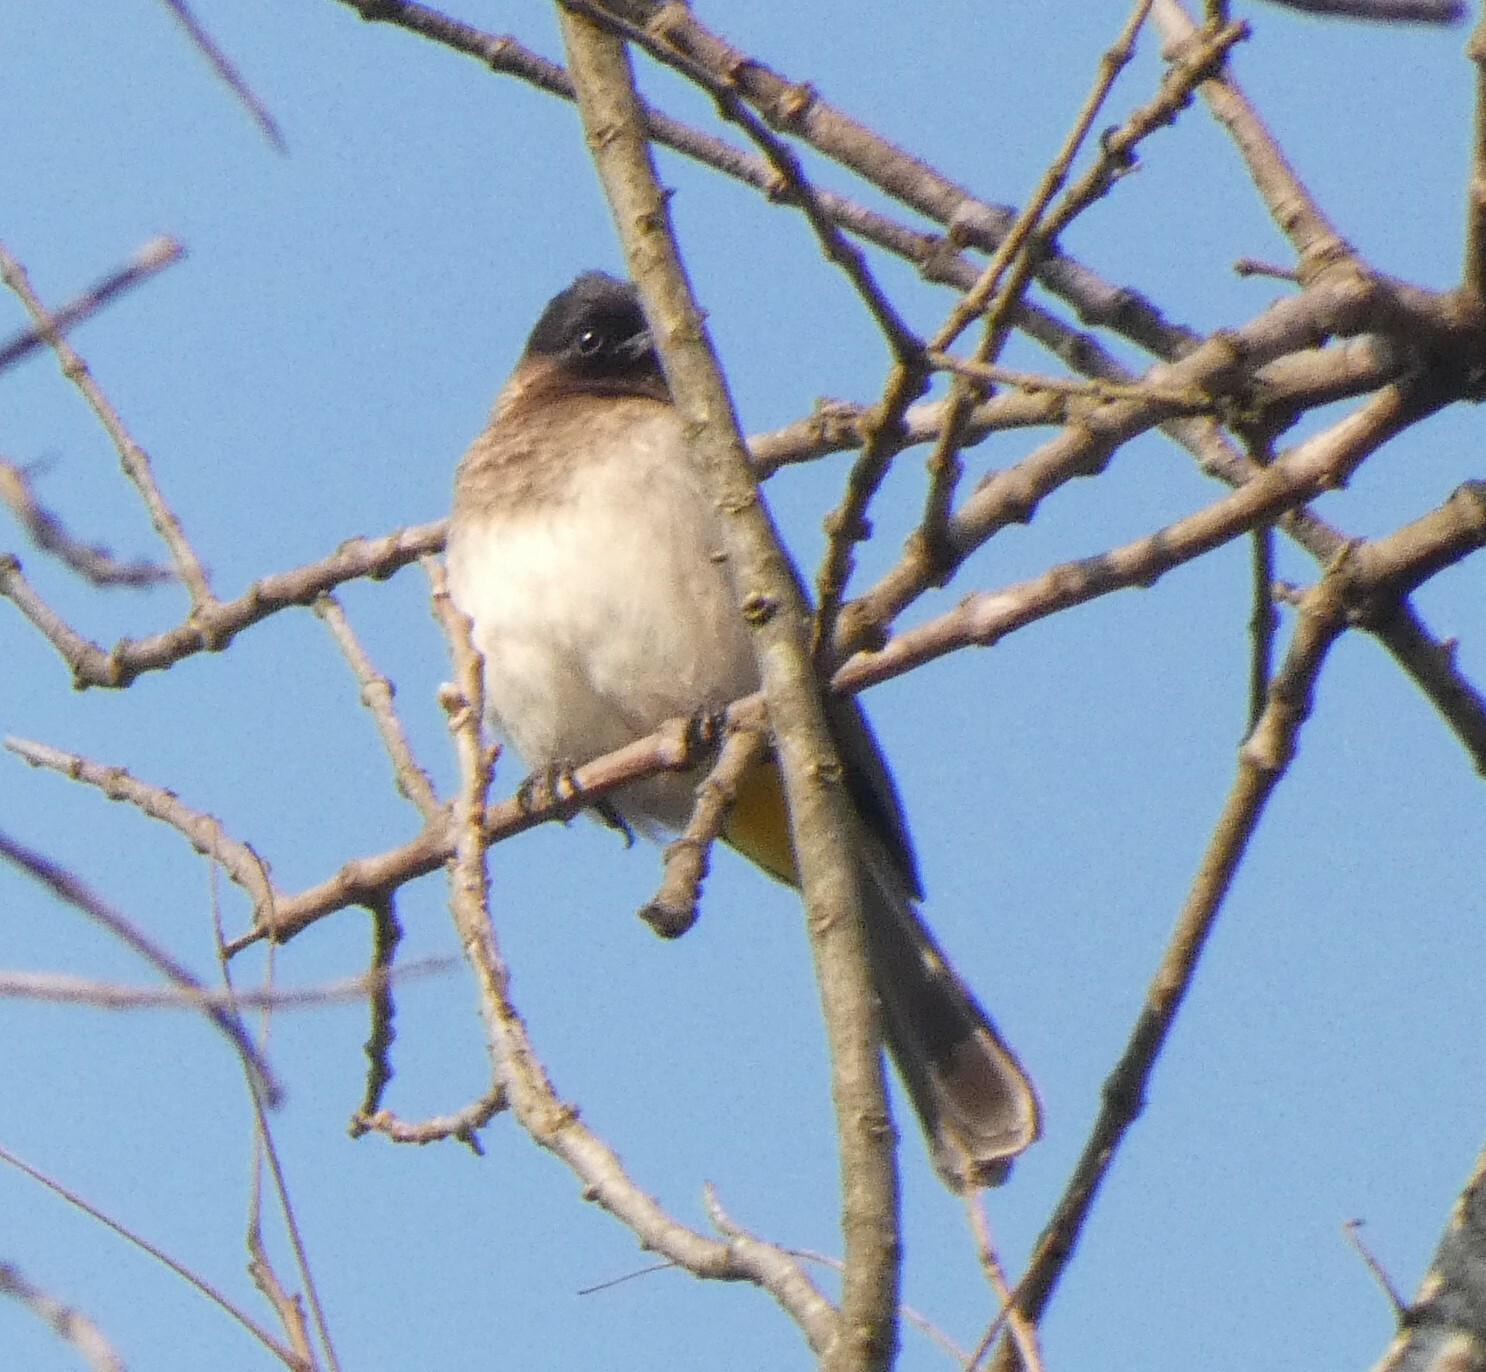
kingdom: Animalia
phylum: Chordata
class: Aves
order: Passeriformes
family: Pycnonotidae
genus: Pycnonotus
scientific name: Pycnonotus barbatus
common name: Common bulbul
